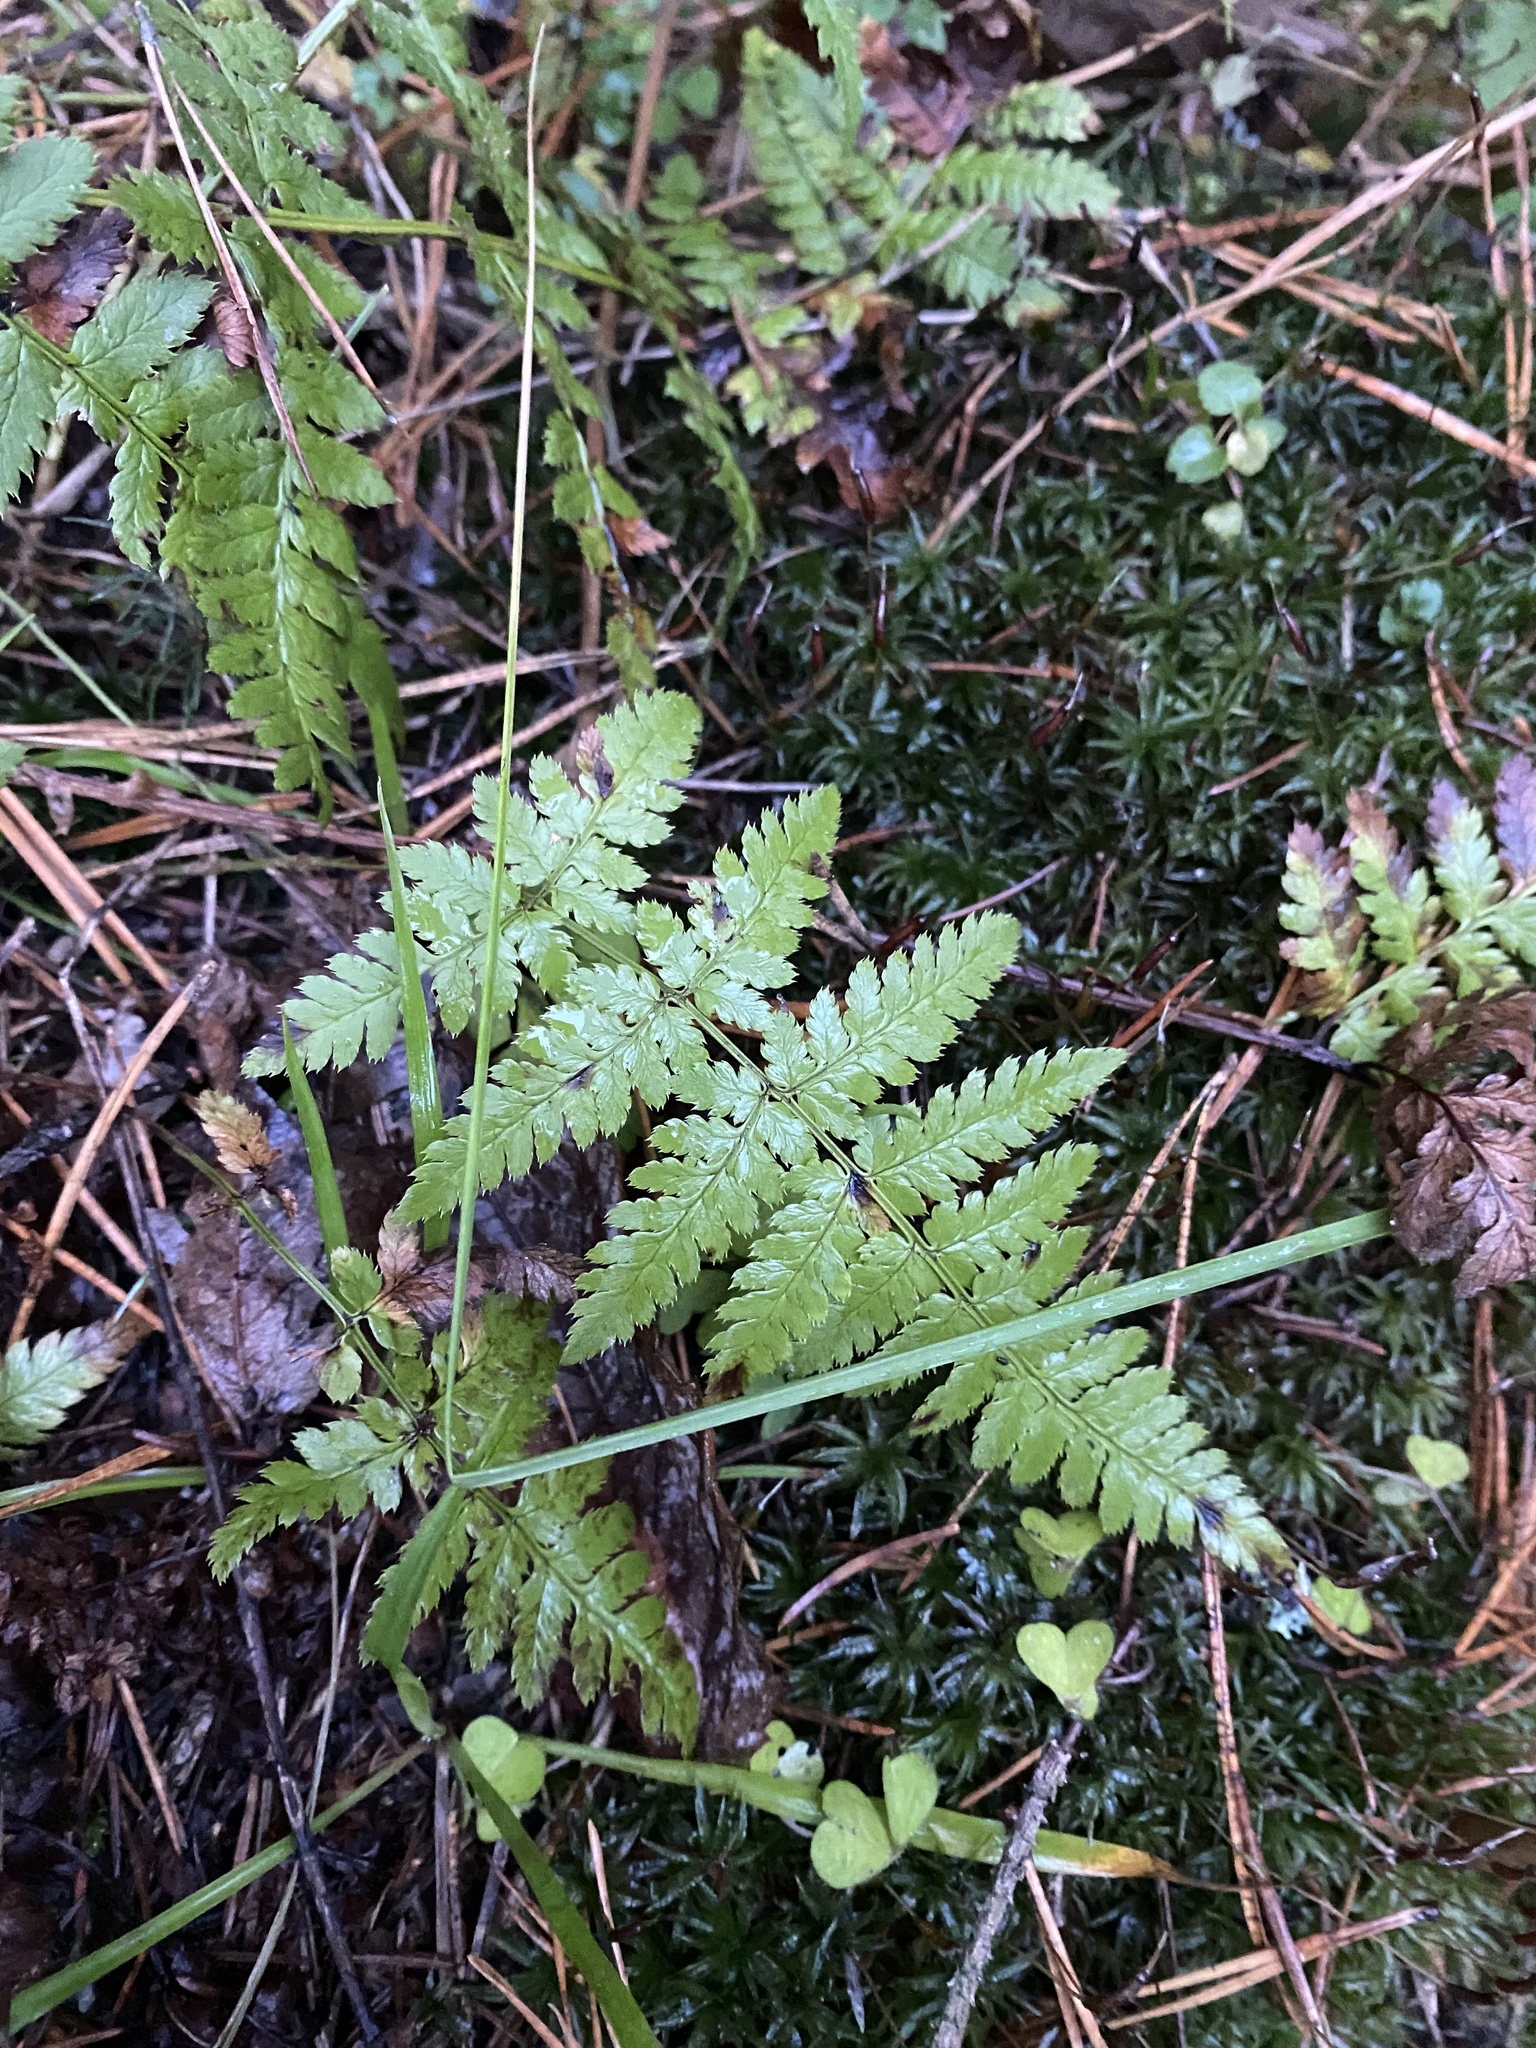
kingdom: Plantae
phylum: Tracheophyta
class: Polypodiopsida
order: Polypodiales
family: Dryopteridaceae
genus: Dryopteris
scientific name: Dryopteris carthusiana
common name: Narrow buckler-fern
